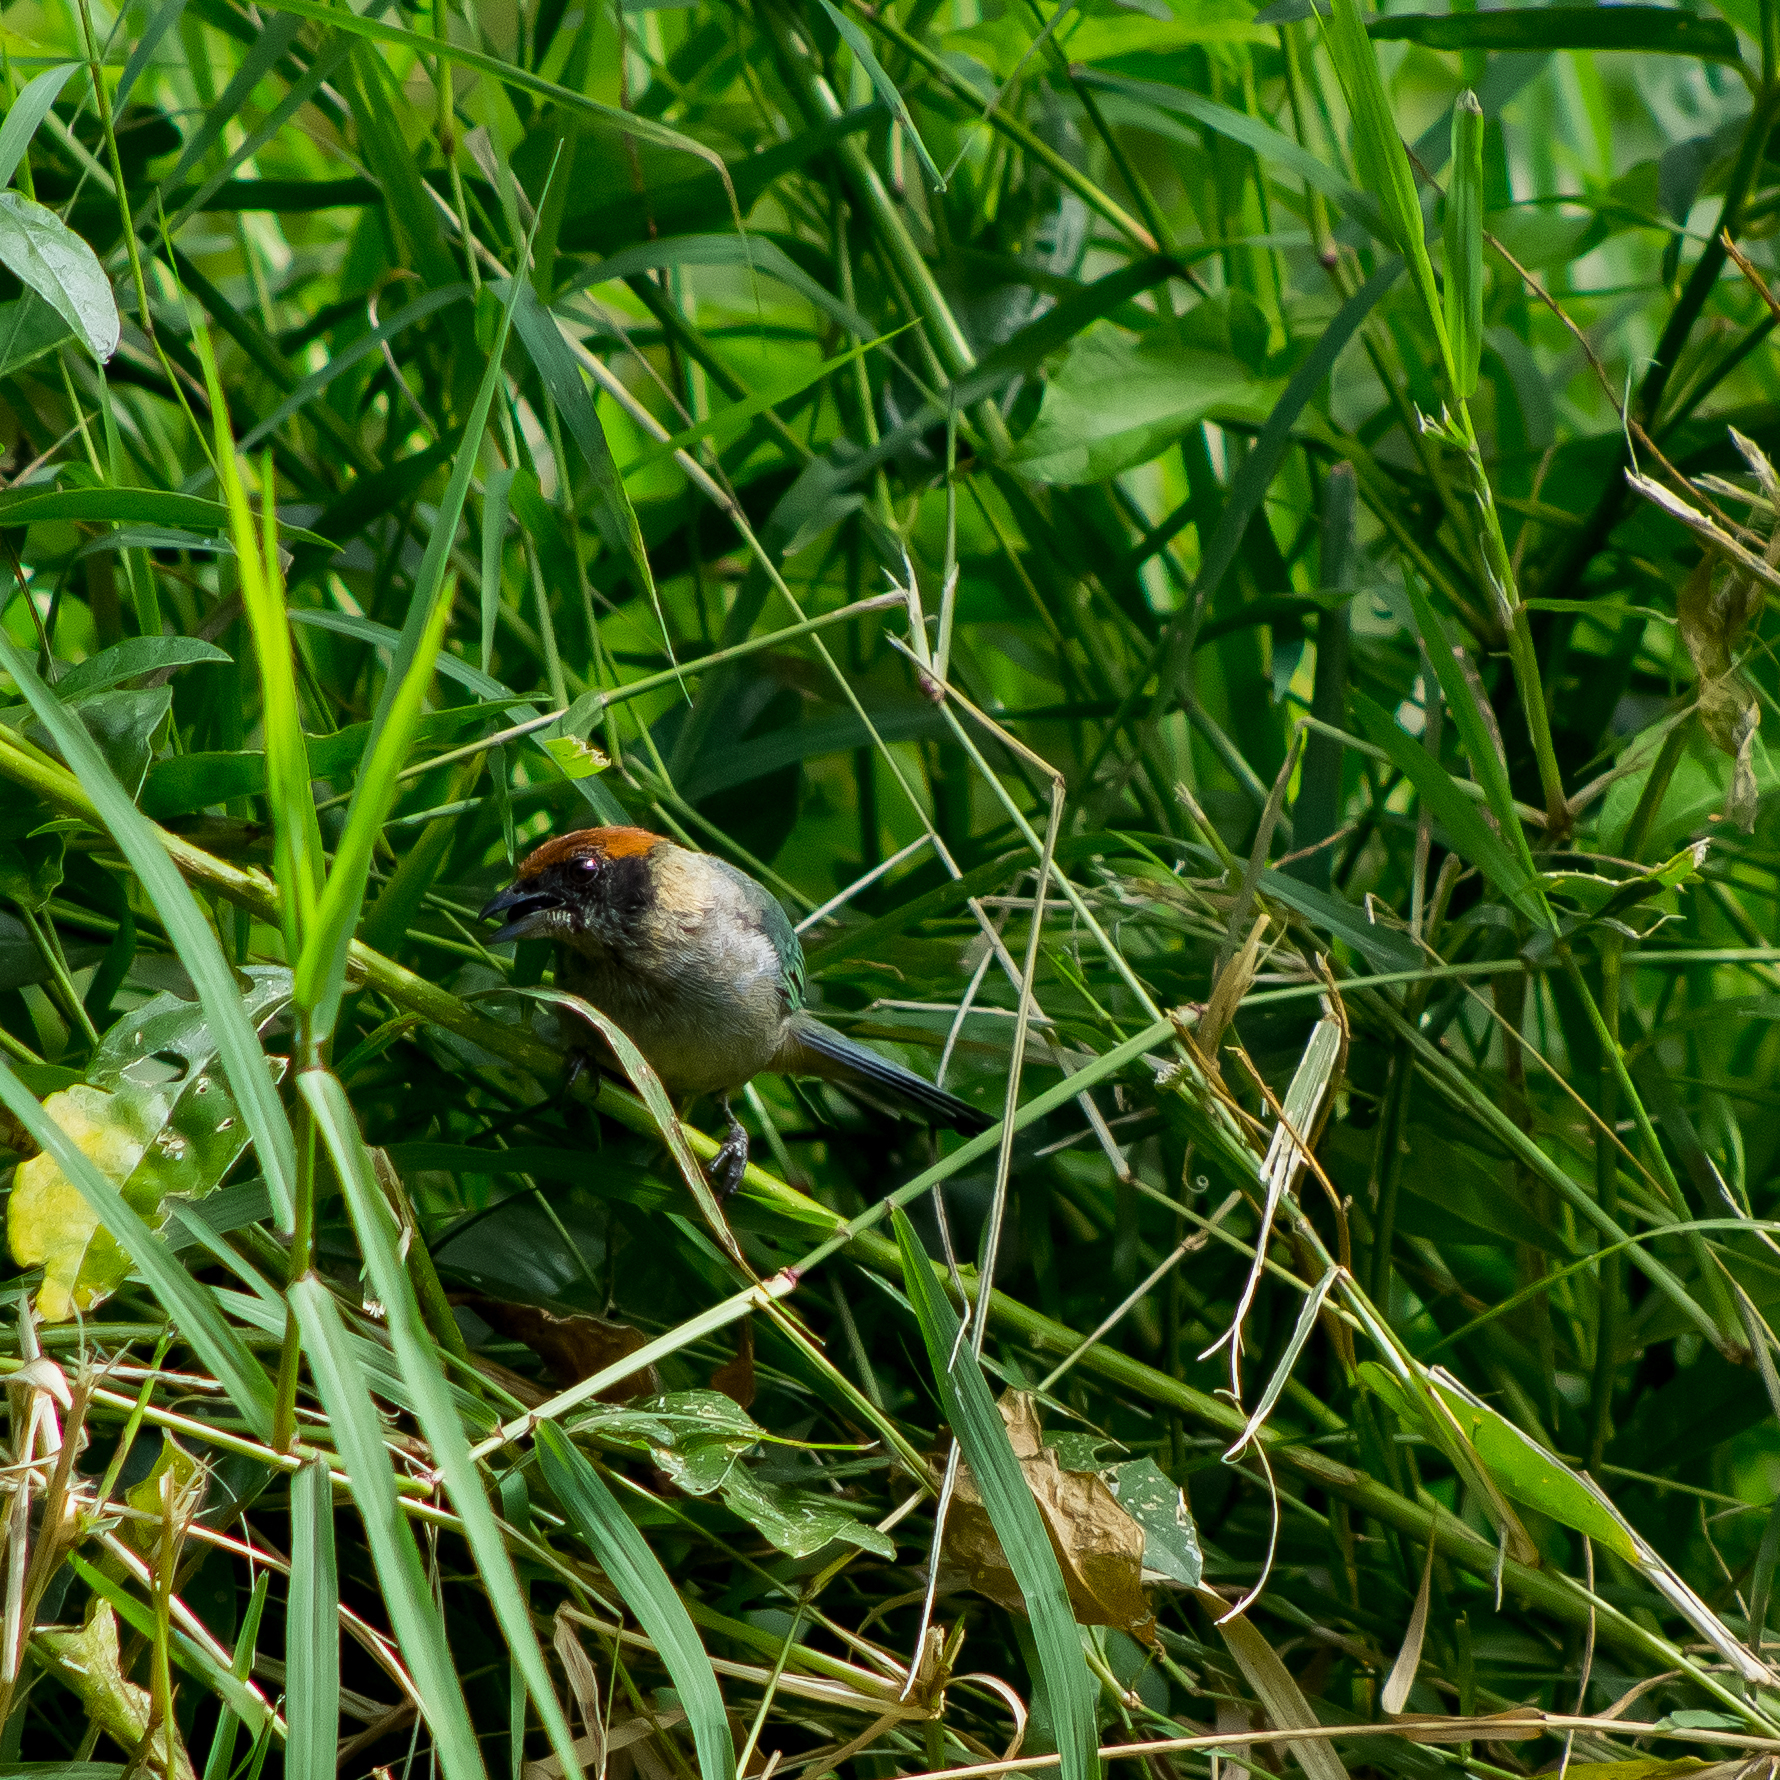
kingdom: Animalia
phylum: Chordata
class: Aves
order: Passeriformes
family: Thraupidae
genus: Stilpnia
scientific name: Stilpnia vitriolina
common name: Scrub tanager
